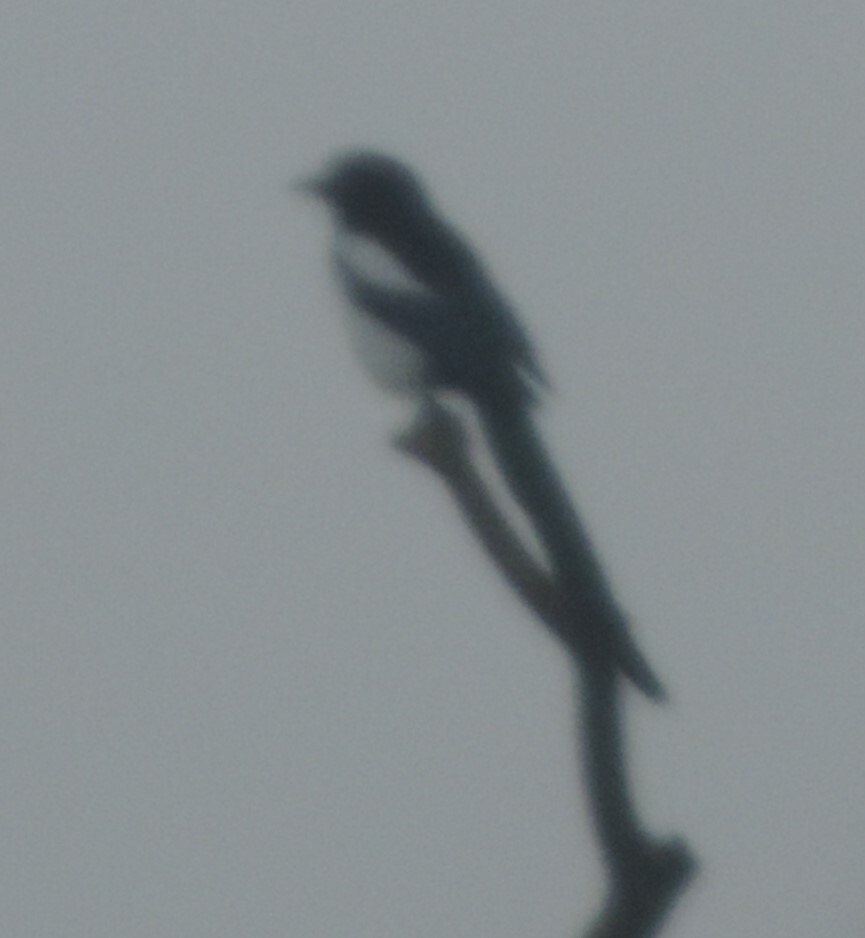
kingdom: Animalia
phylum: Chordata
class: Aves
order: Passeriformes
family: Corvidae
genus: Pica
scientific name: Pica hudsonia
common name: Black-billed magpie
